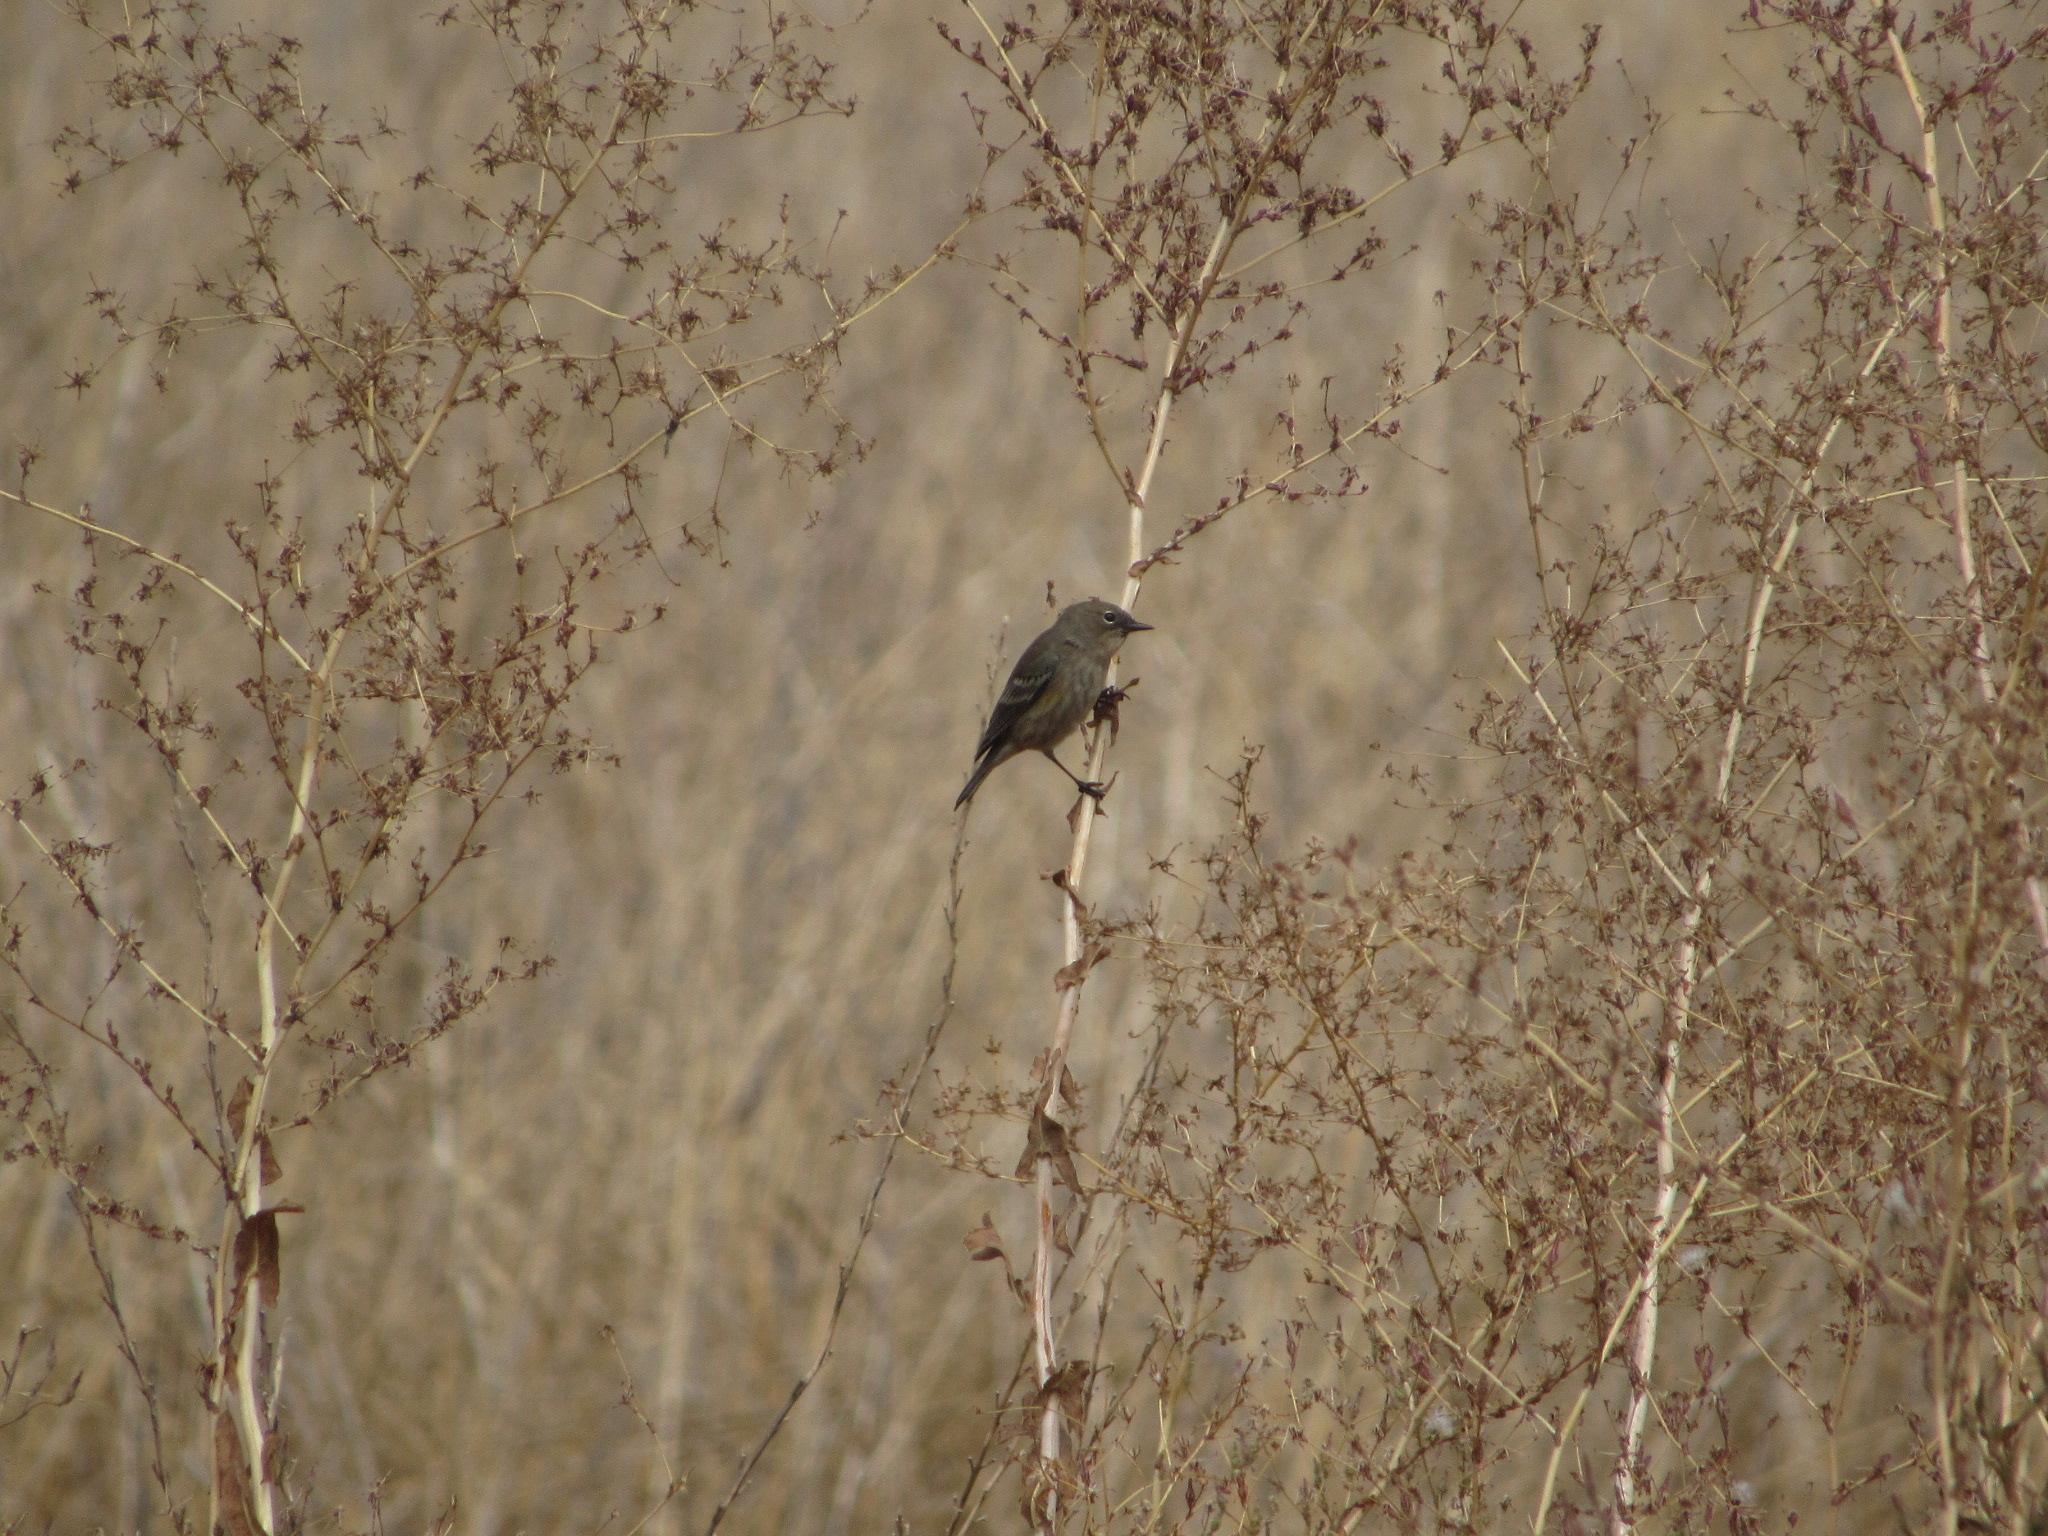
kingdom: Animalia
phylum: Chordata
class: Aves
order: Passeriformes
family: Parulidae
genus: Setophaga
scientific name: Setophaga coronata
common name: Myrtle warbler
